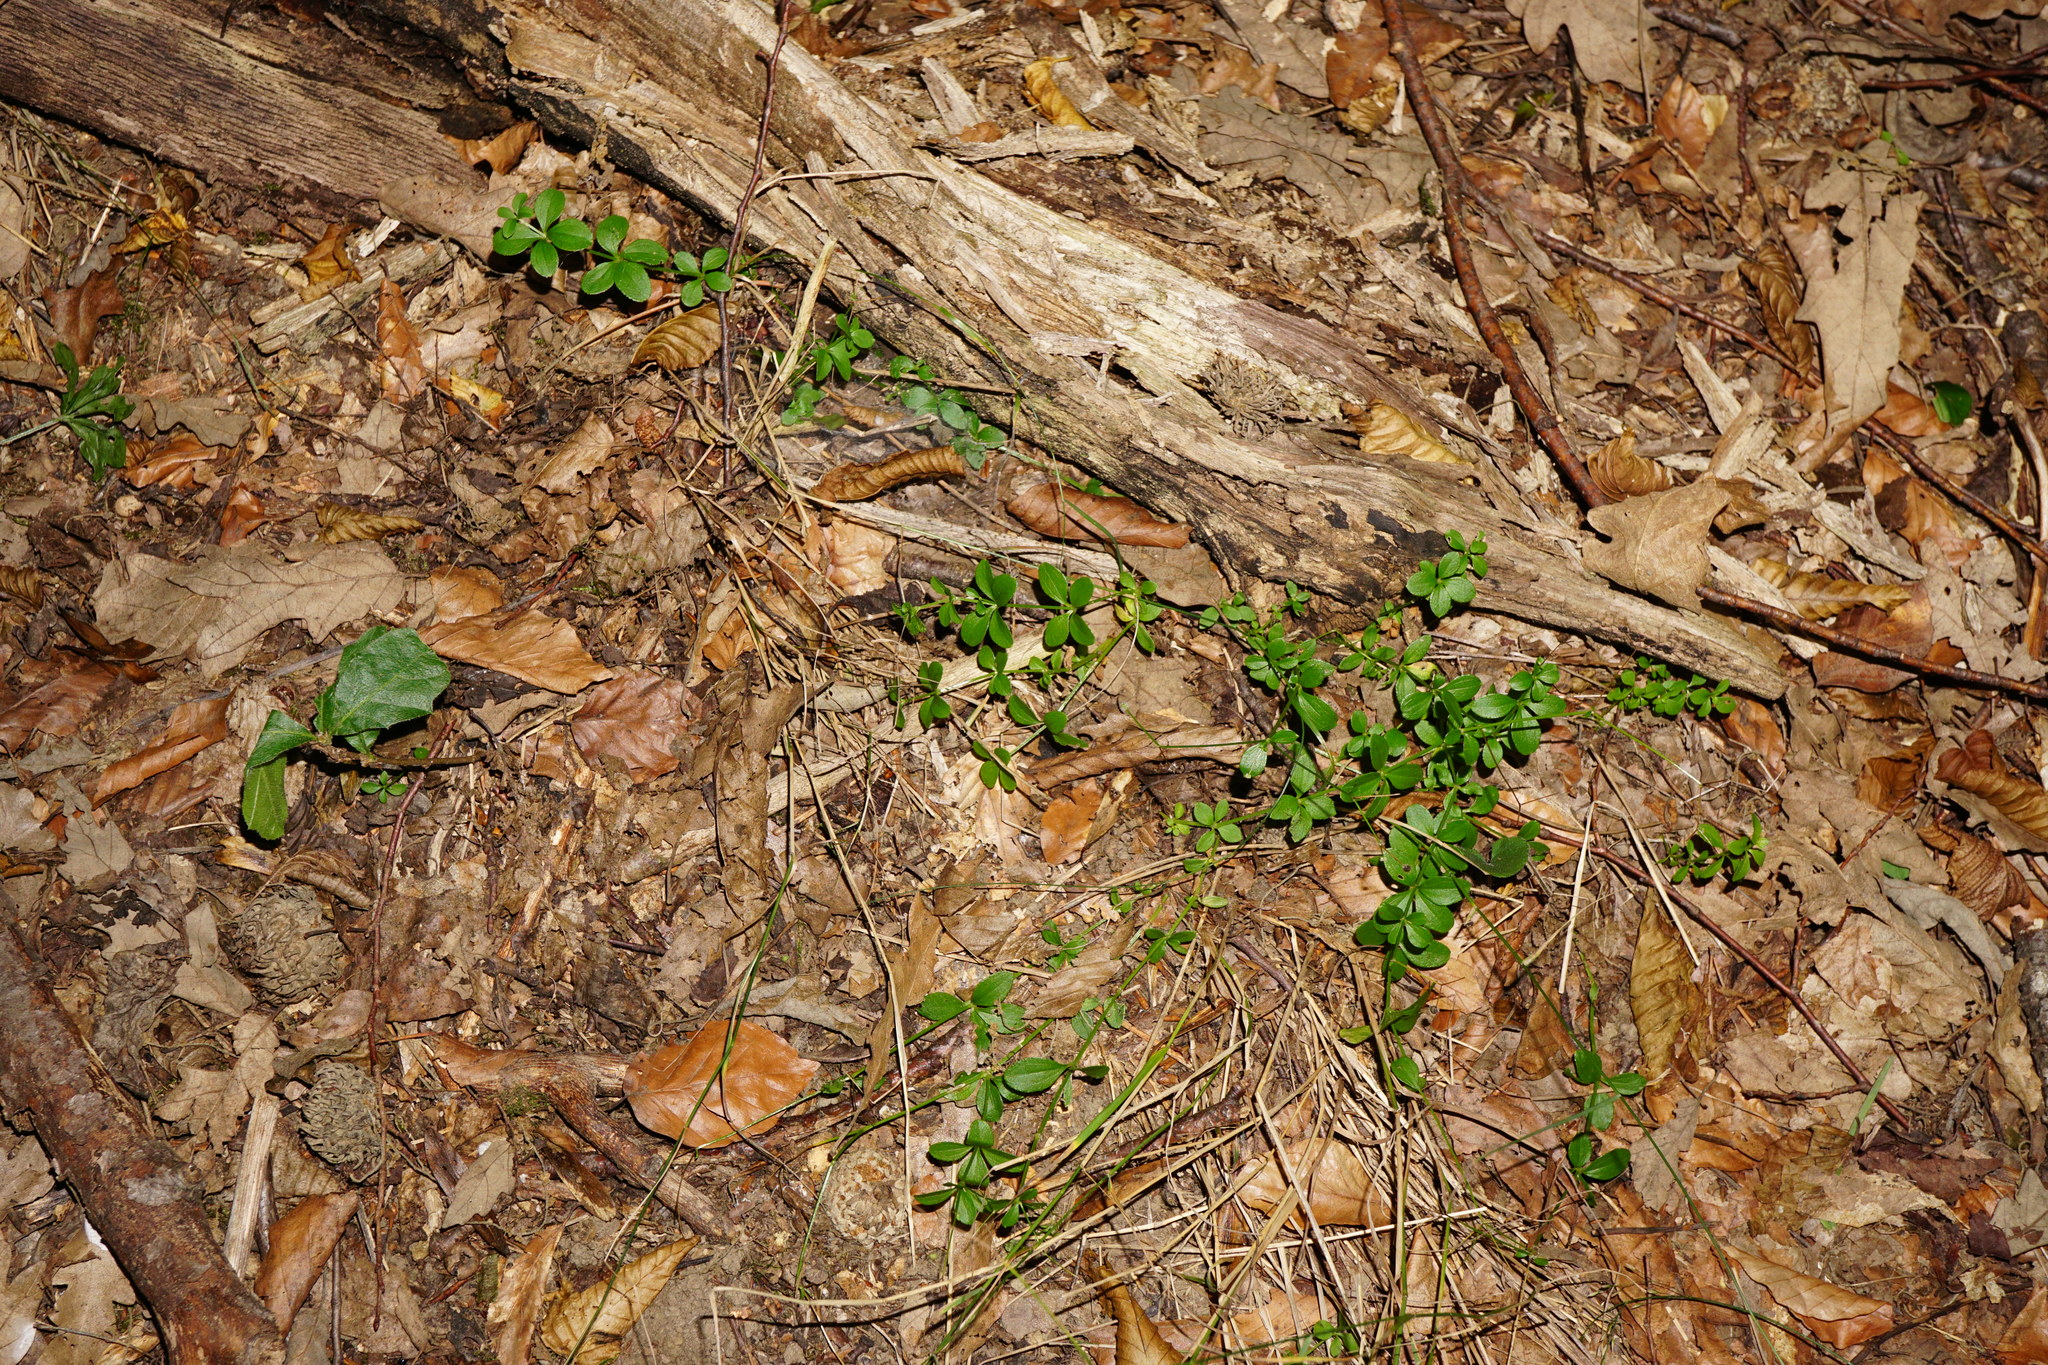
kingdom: Plantae
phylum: Tracheophyta
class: Magnoliopsida
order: Gentianales
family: Rubiaceae
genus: Galium
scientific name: Galium rotundifolium
